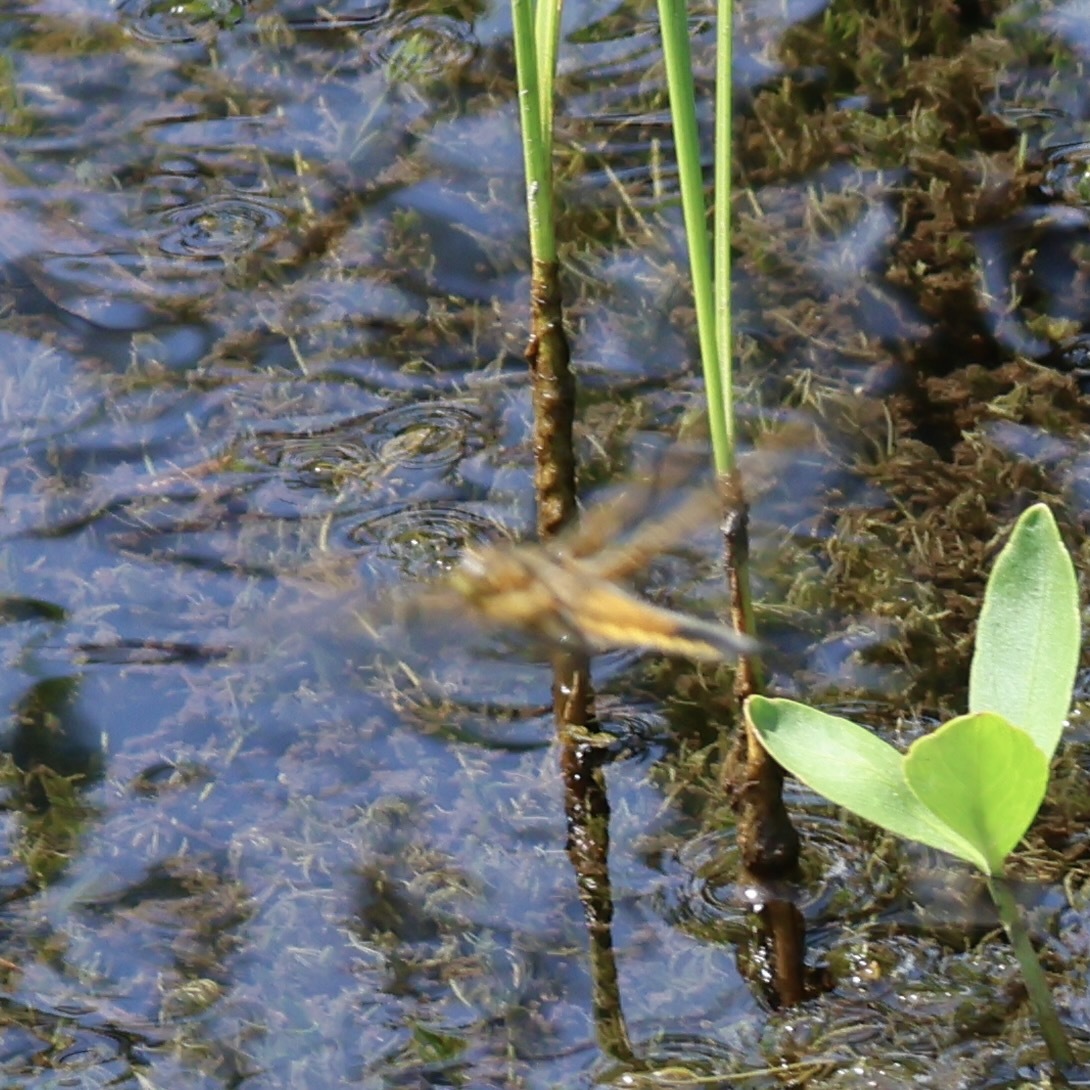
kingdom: Animalia
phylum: Arthropoda
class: Insecta
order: Odonata
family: Libellulidae
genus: Libellula
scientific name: Libellula quadrimaculata
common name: Four-spotted chaser
